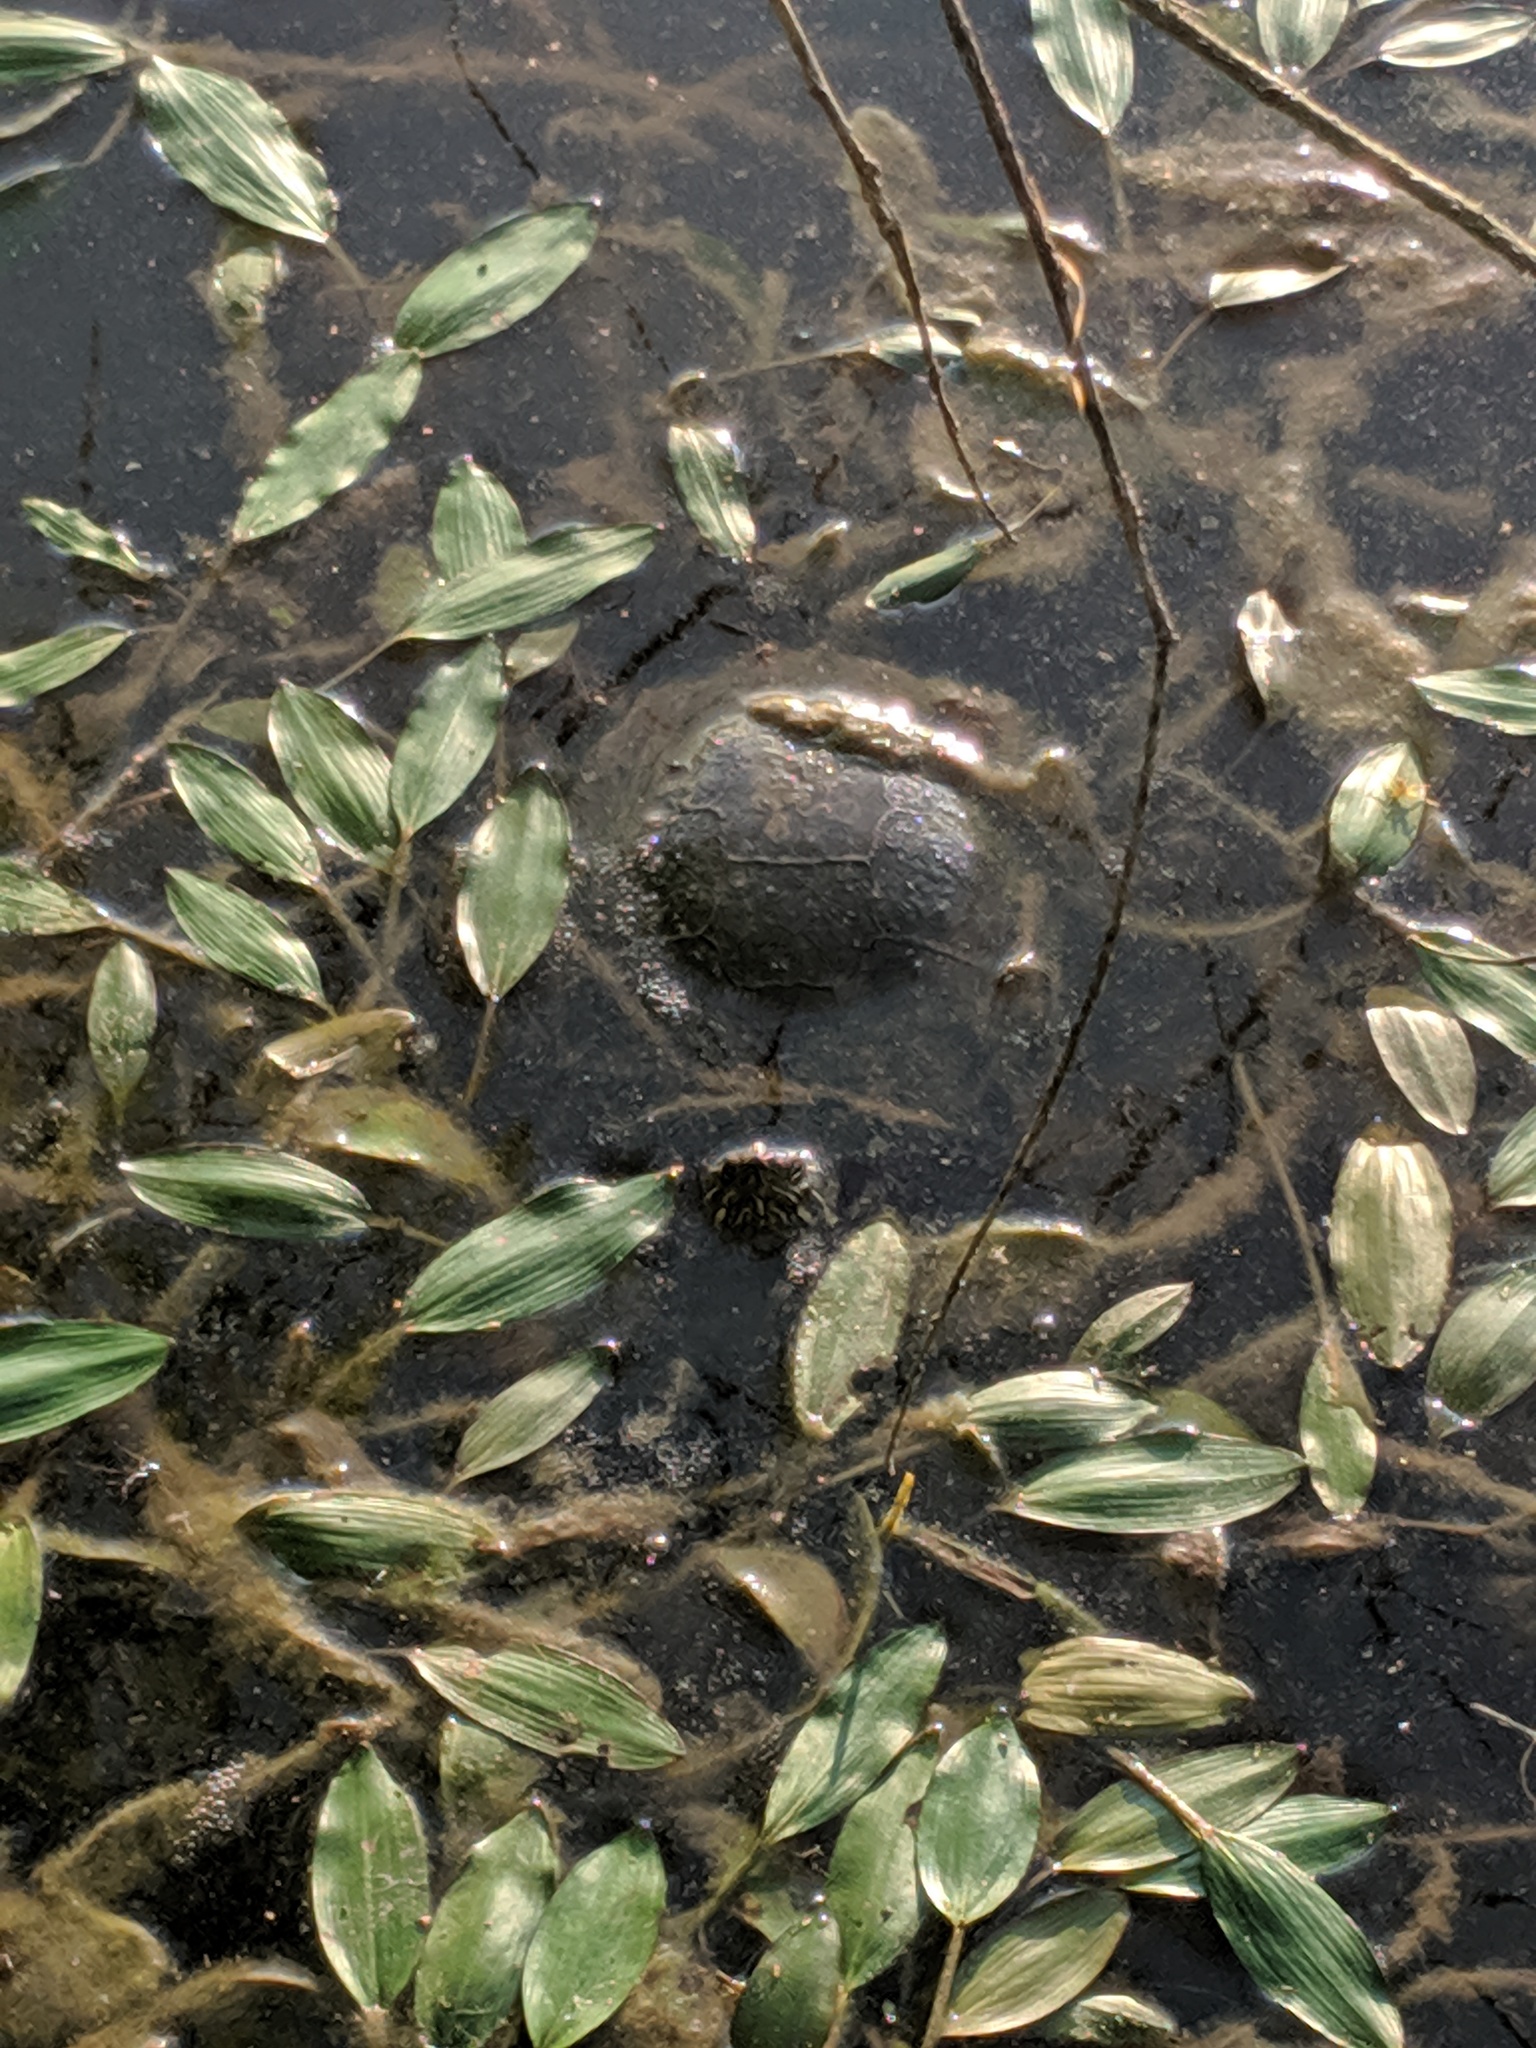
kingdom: Animalia
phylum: Chordata
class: Testudines
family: Emydidae
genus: Chrysemys
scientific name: Chrysemys picta
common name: Painted turtle
